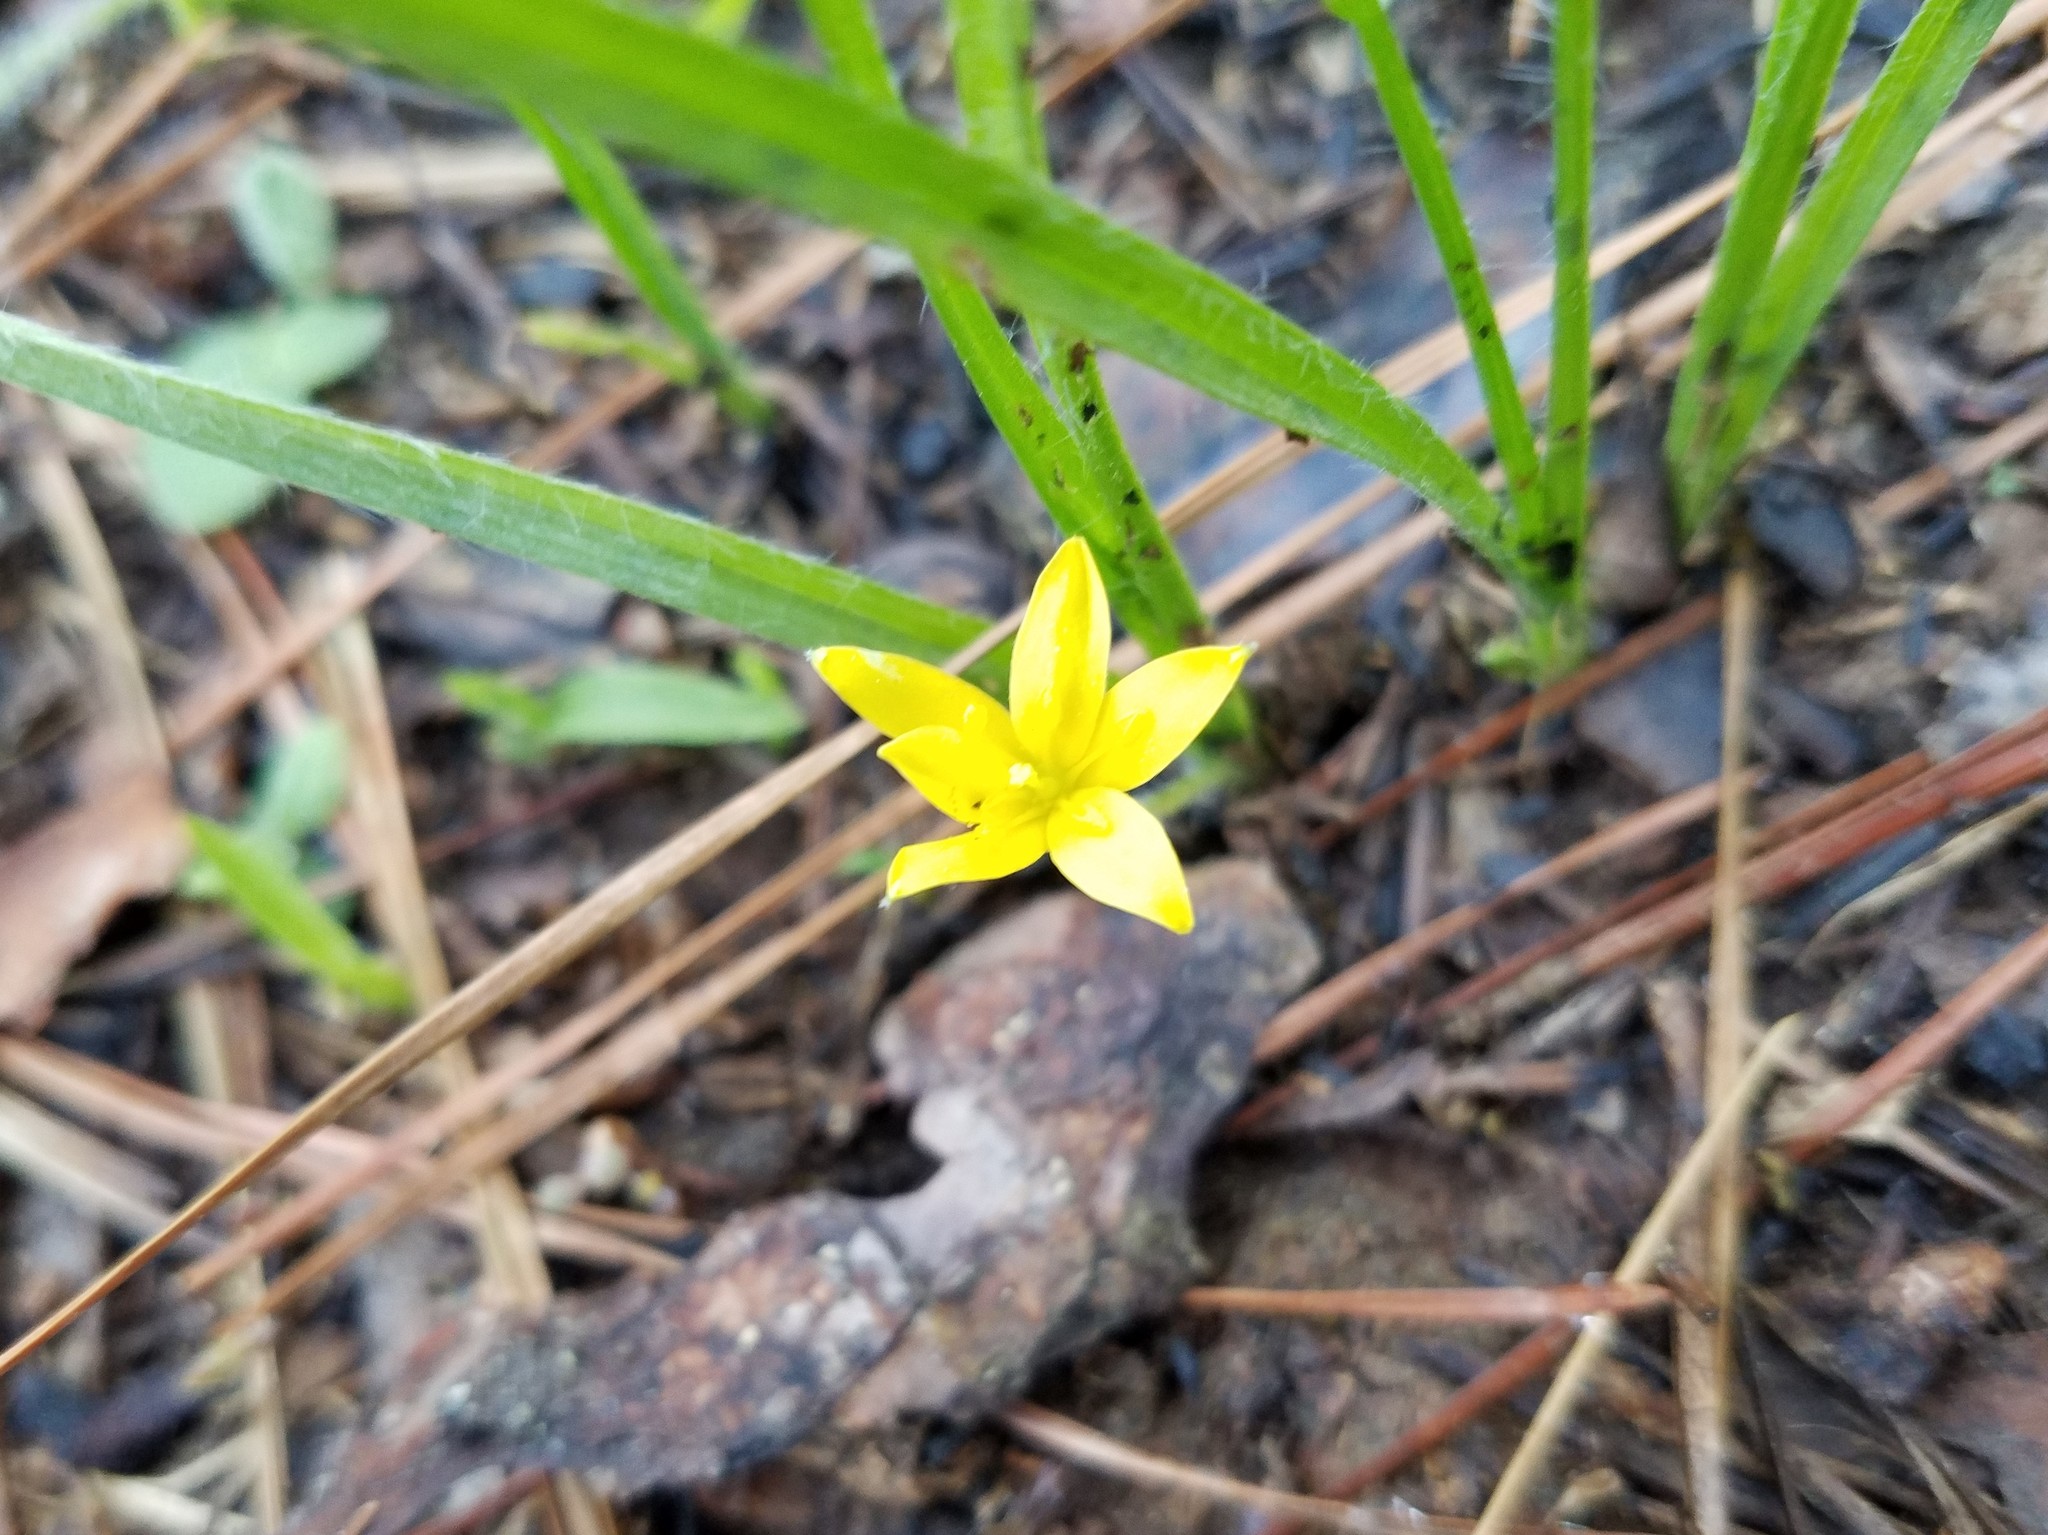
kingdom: Plantae
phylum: Tracheophyta
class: Liliopsida
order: Asparagales
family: Hypoxidaceae
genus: Hypoxis
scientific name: Hypoxis hirsuta
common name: Common goldstar
